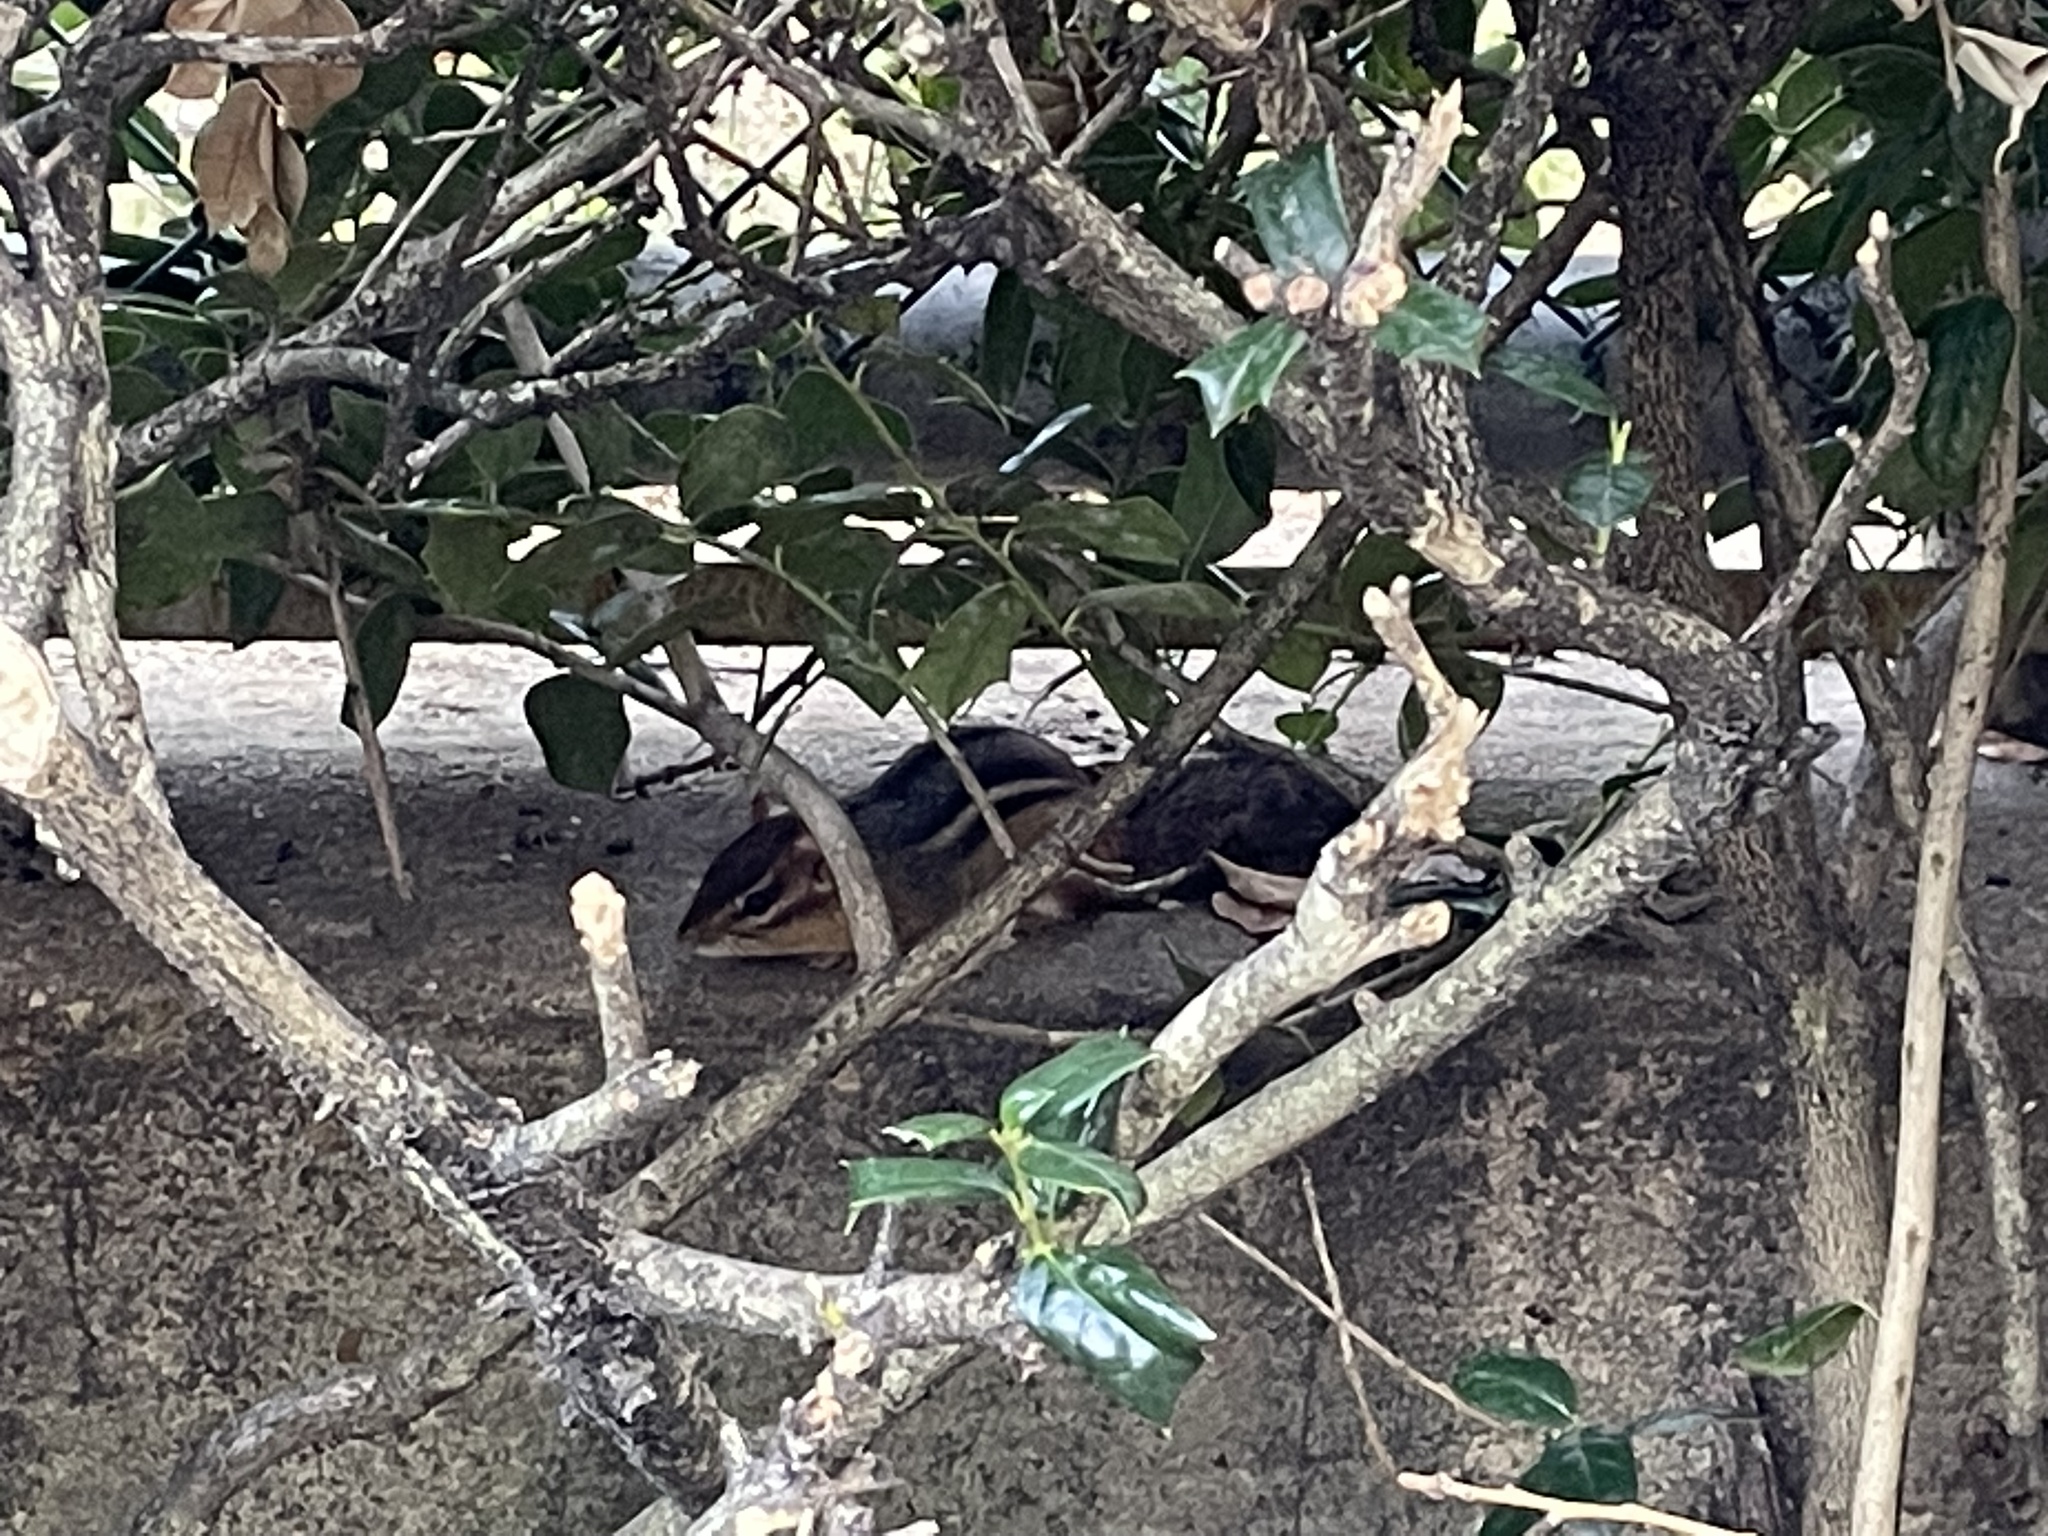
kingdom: Animalia
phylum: Chordata
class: Mammalia
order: Rodentia
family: Sciuridae
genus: Tamias
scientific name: Tamias striatus
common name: Eastern chipmunk
